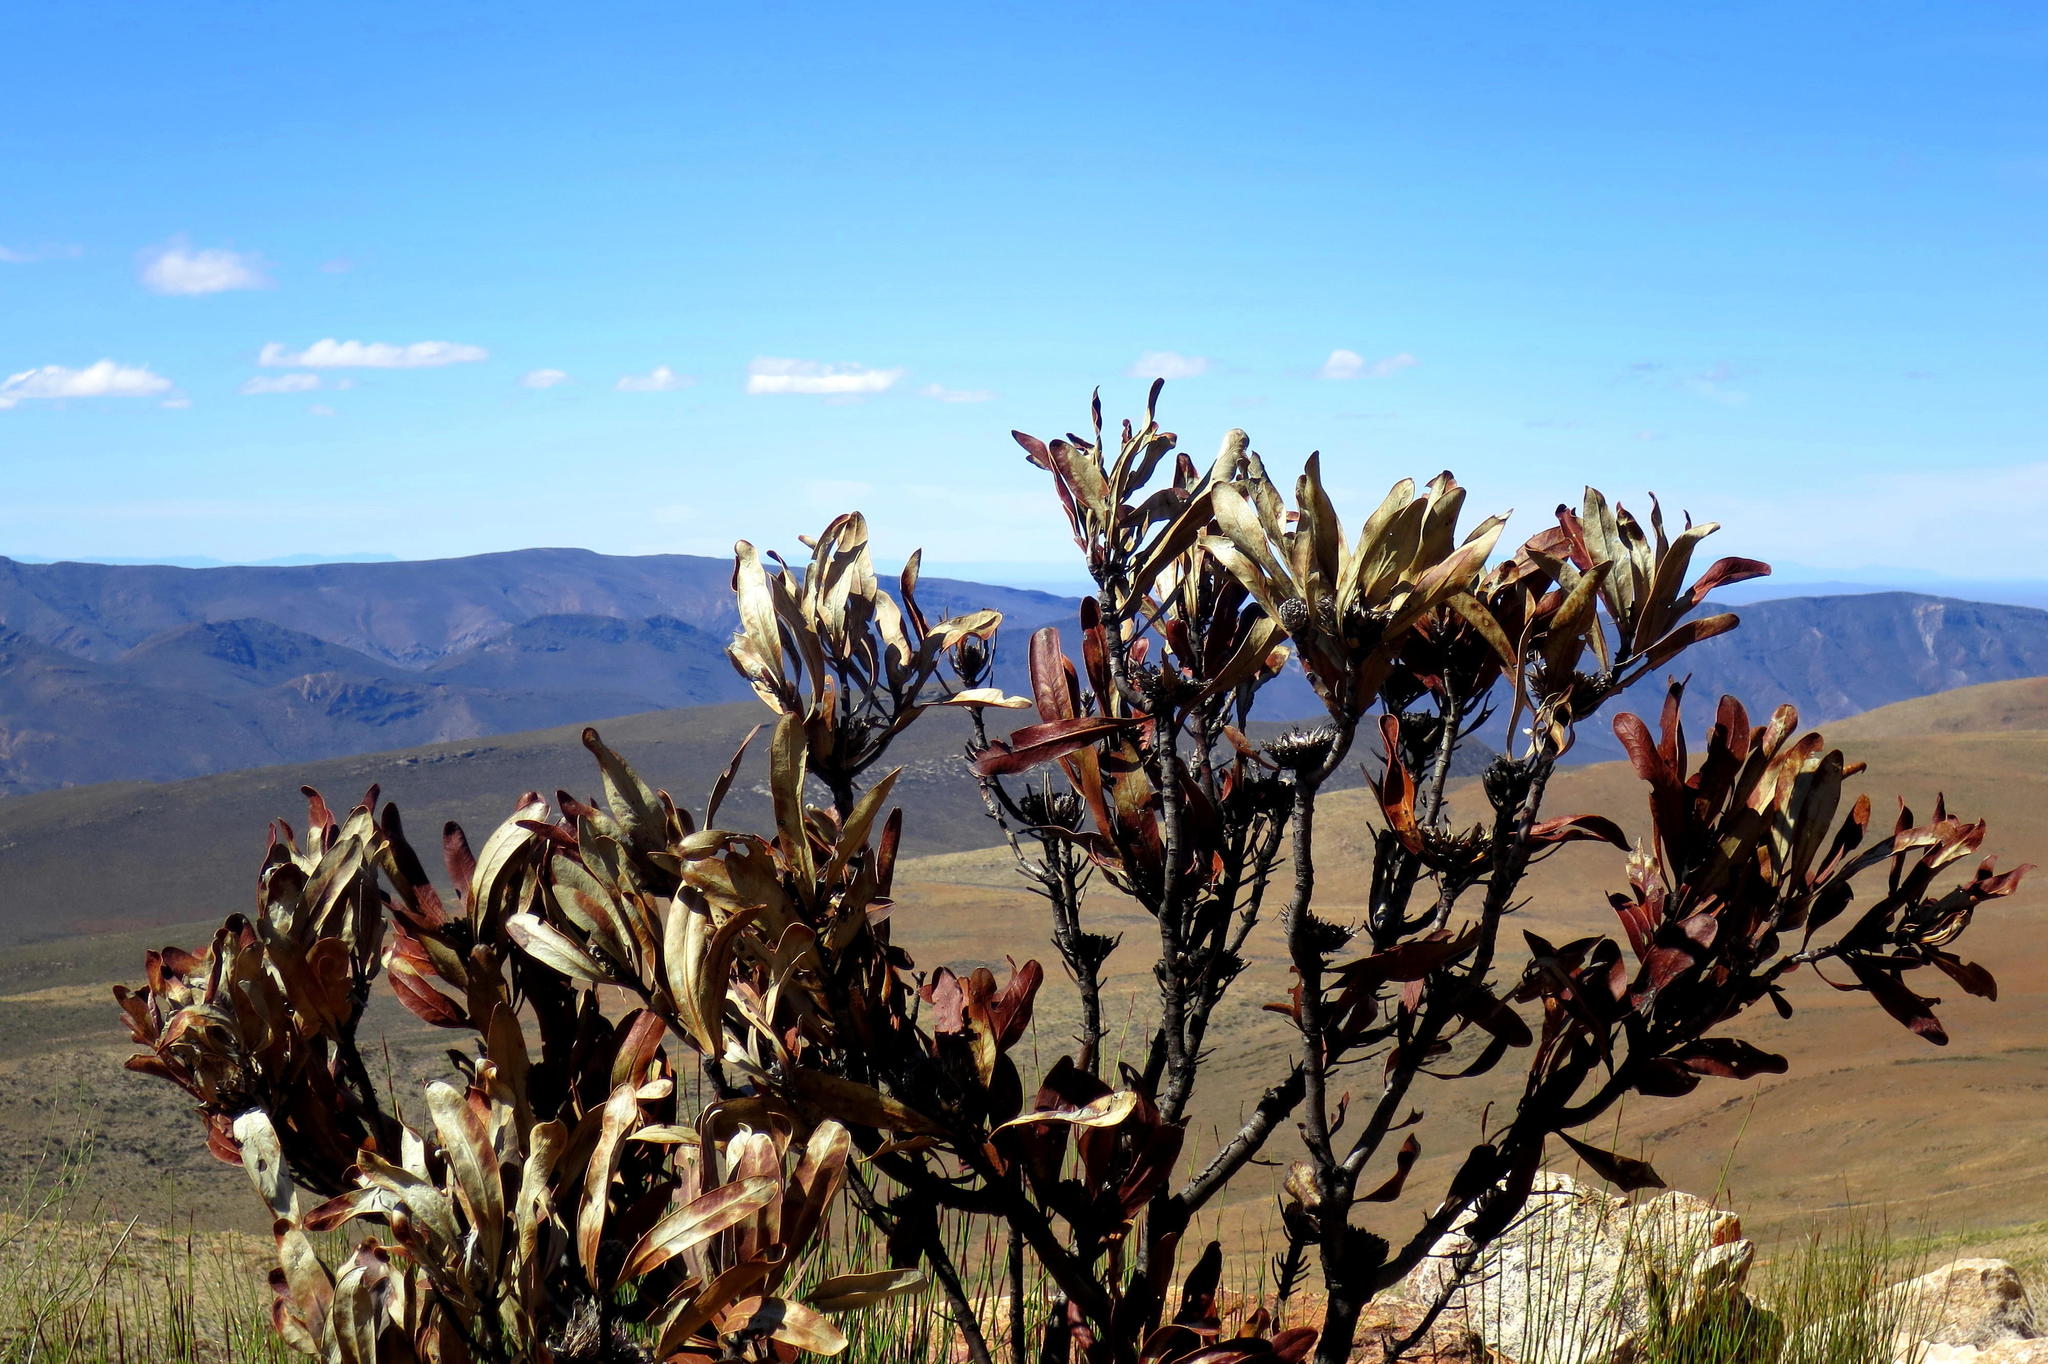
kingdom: Plantae
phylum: Tracheophyta
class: Magnoliopsida
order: Proteales
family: Proteaceae
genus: Protea
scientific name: Protea lorifolia
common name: Strap-leaved protea
